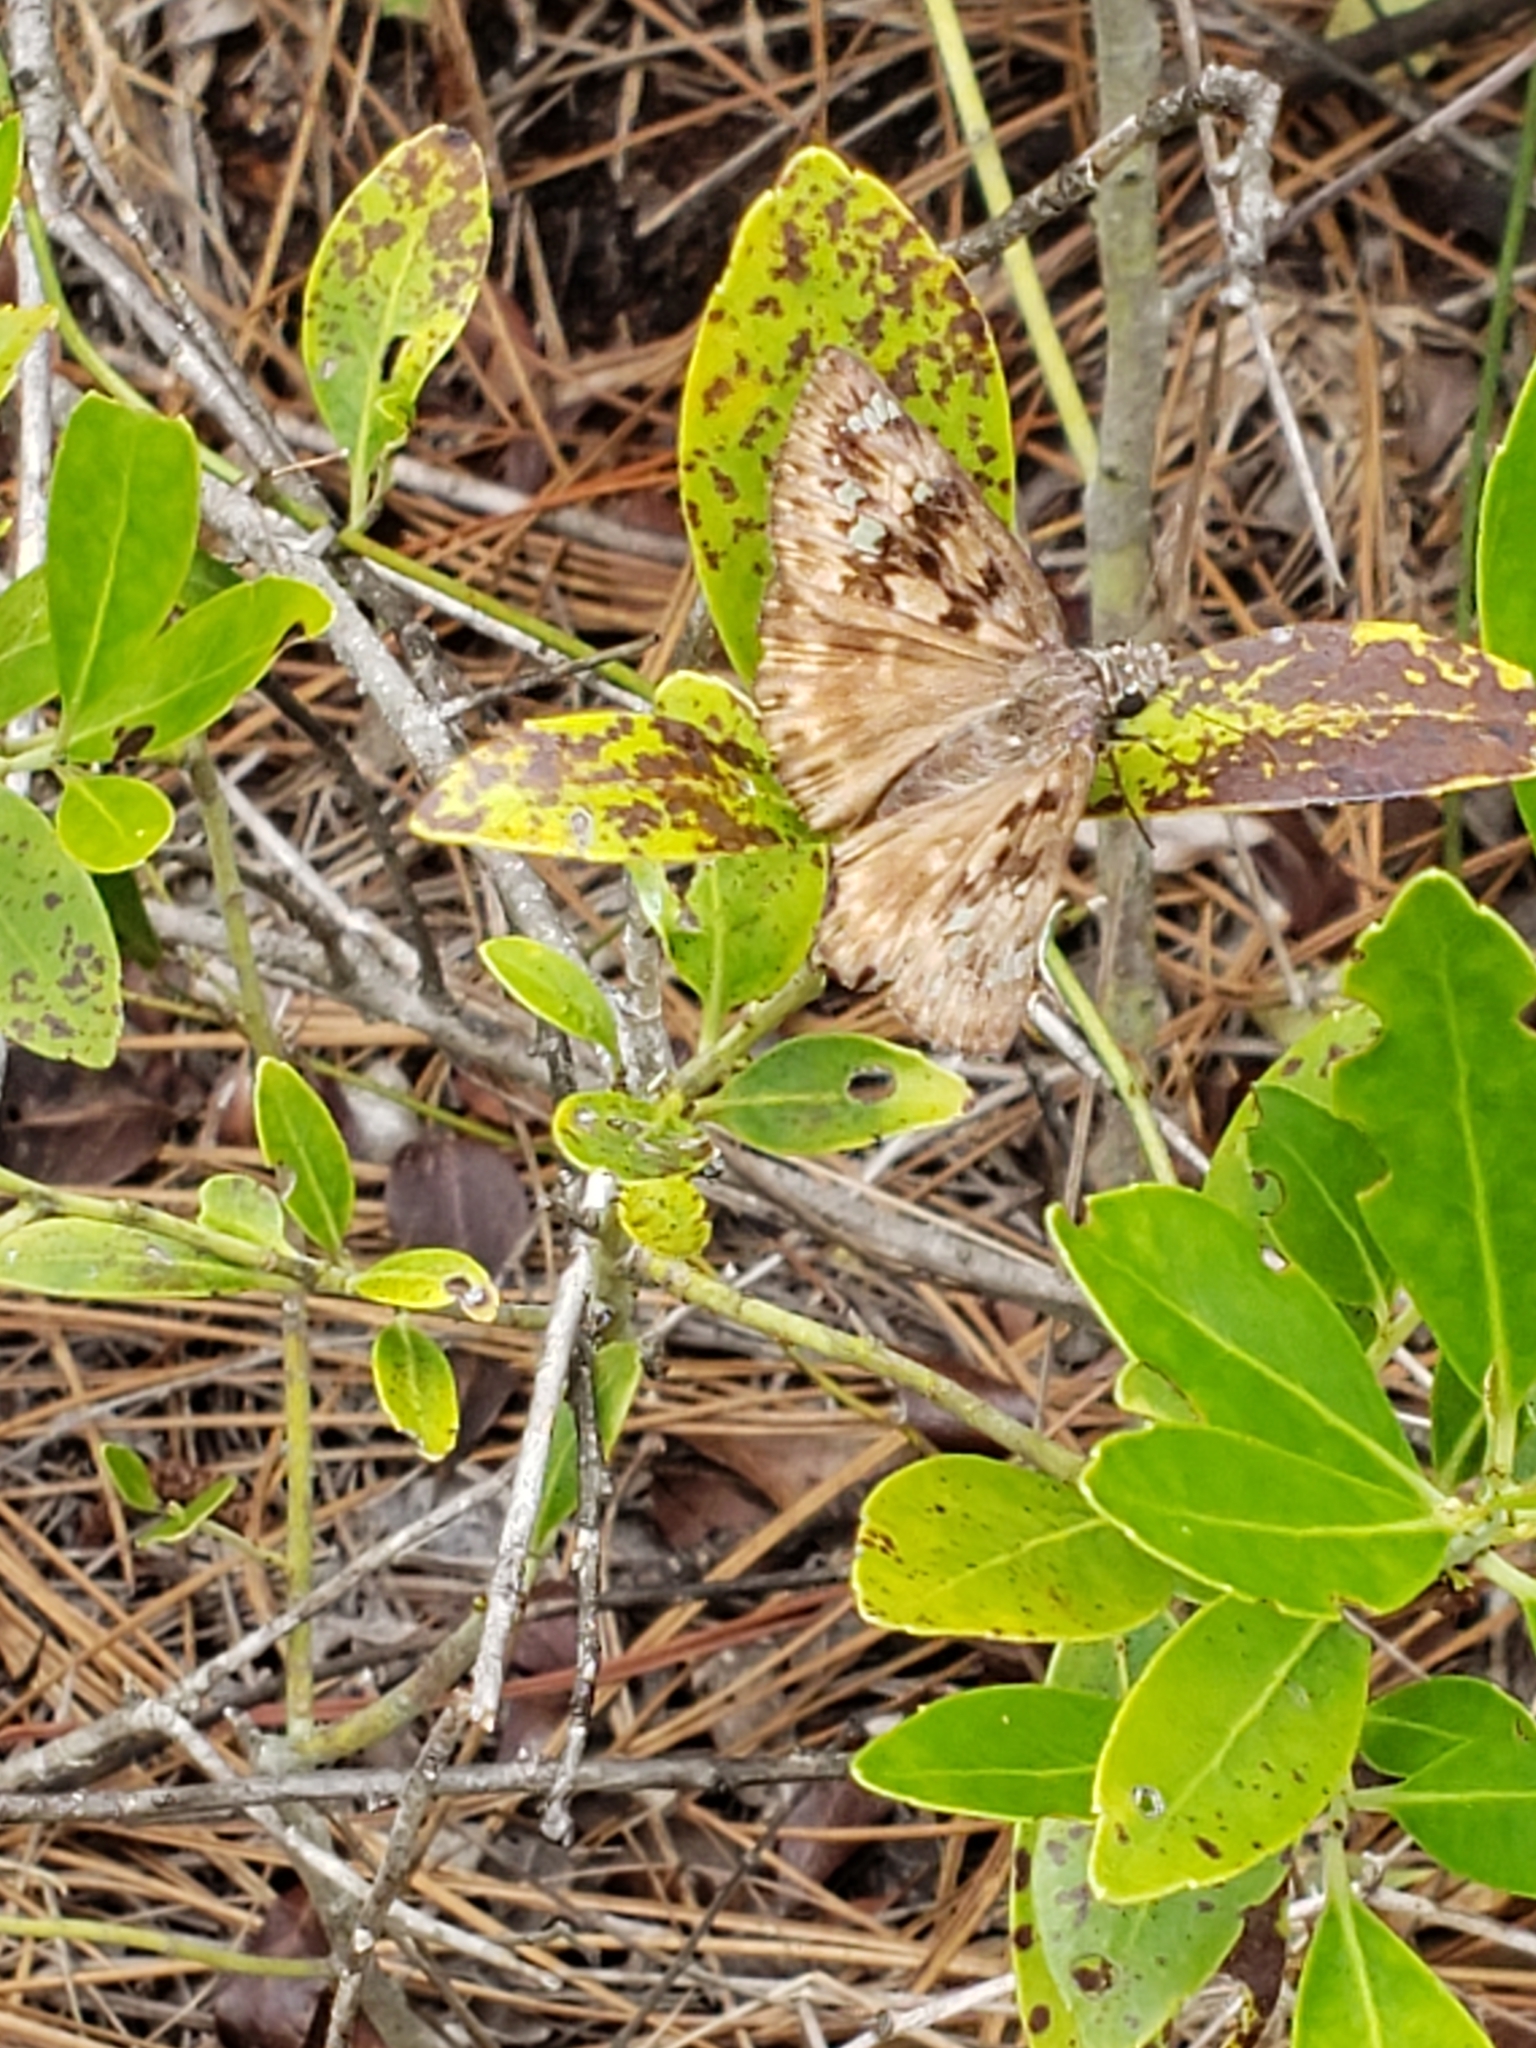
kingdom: Animalia
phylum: Arthropoda
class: Insecta
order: Lepidoptera
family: Hesperiidae
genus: Erynnis
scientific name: Erynnis horatius
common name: Horace's duskywing
